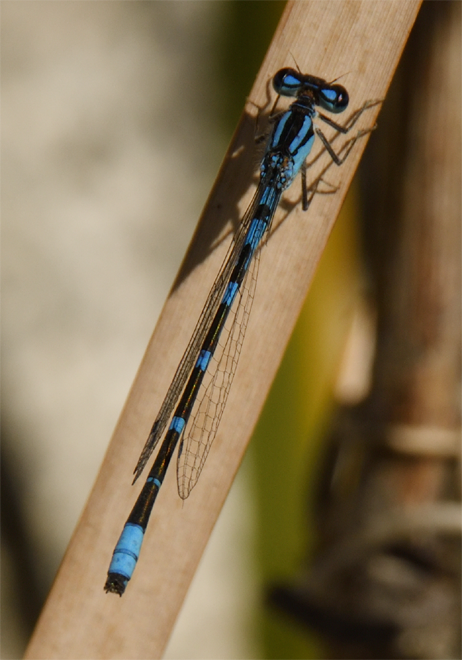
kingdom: Animalia
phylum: Arthropoda
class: Insecta
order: Odonata
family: Coenagrionidae
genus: Enallagma
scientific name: Enallagma carunculatum
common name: Tule bluet
